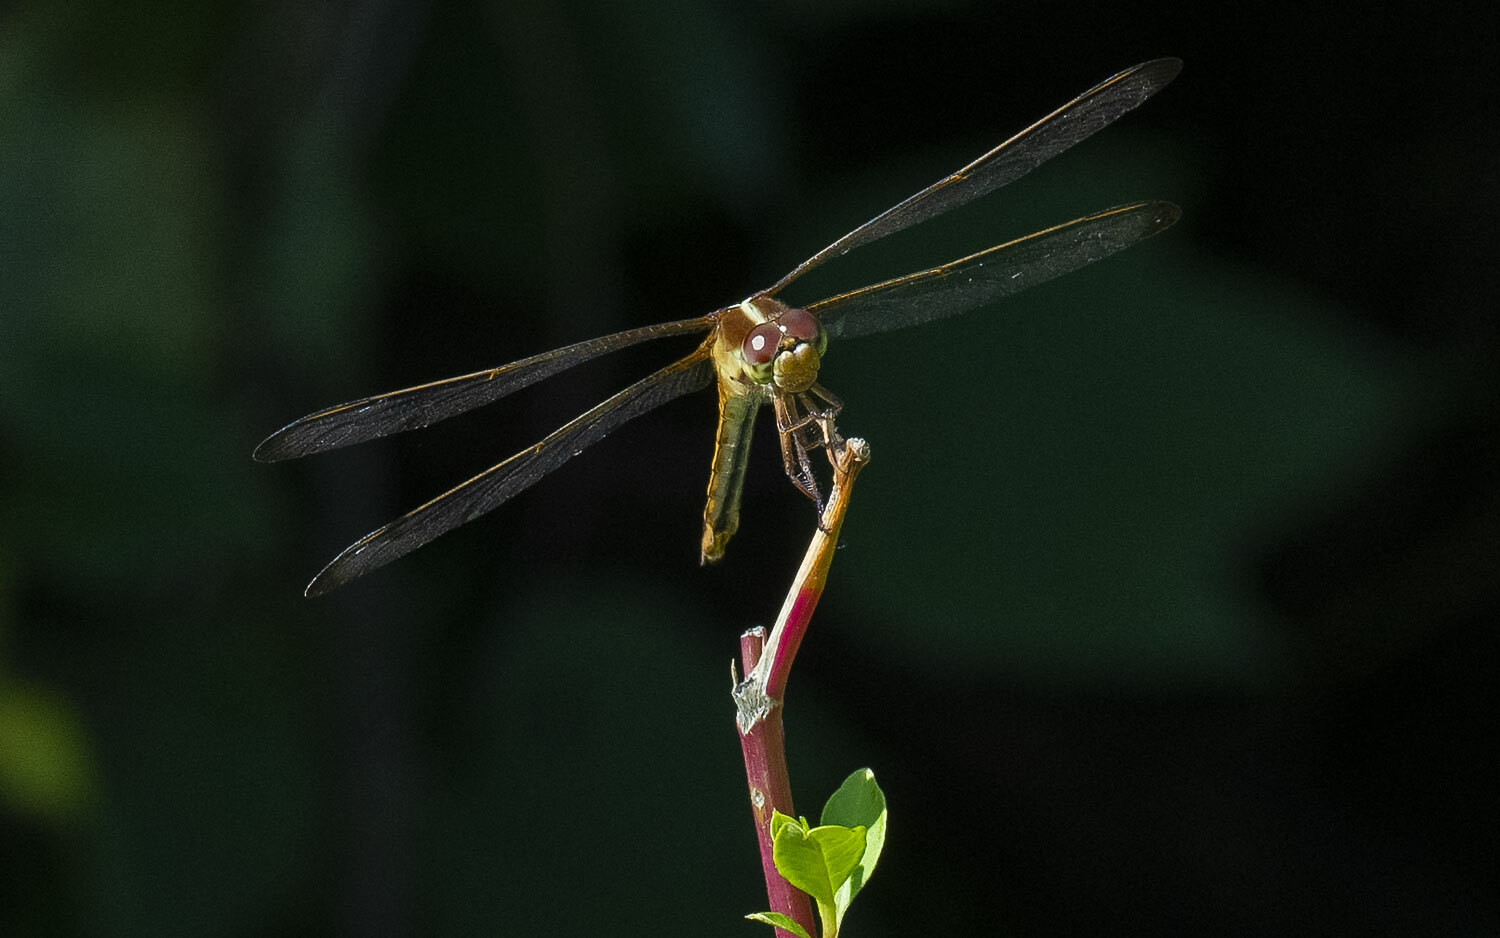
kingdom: Animalia
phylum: Arthropoda
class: Insecta
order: Odonata
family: Libellulidae
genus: Libellula
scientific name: Libellula needhami
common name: Needham's skimmer
